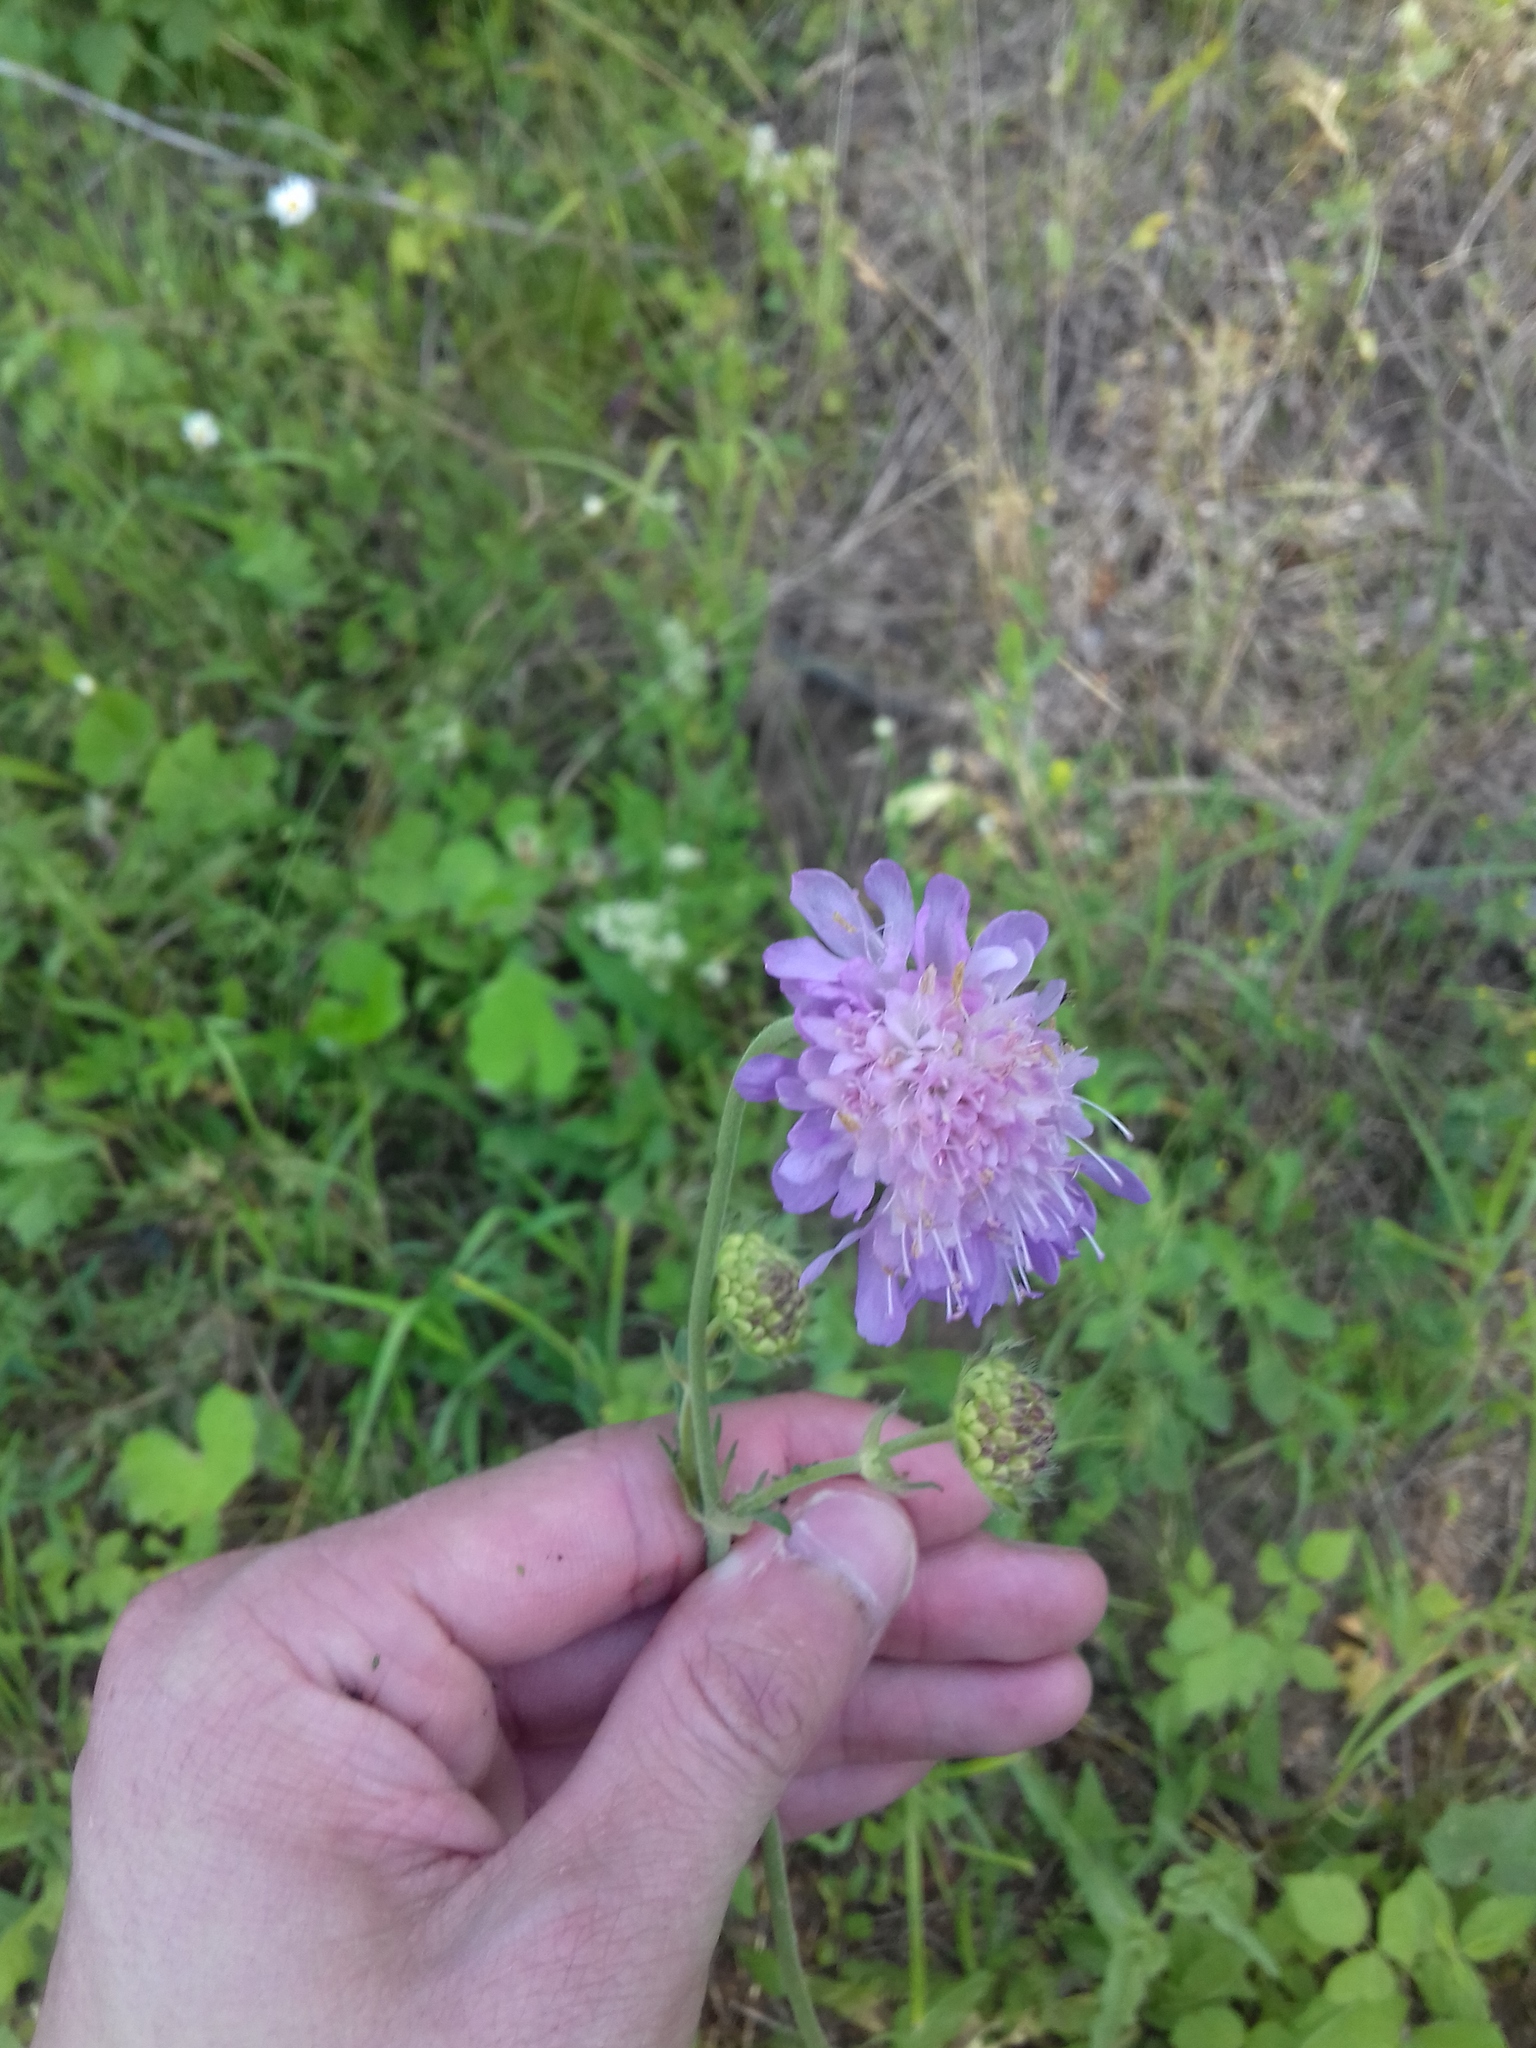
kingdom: Plantae
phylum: Tracheophyta
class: Magnoliopsida
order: Dipsacales
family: Caprifoliaceae
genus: Knautia
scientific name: Knautia arvensis
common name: Field scabiosa
